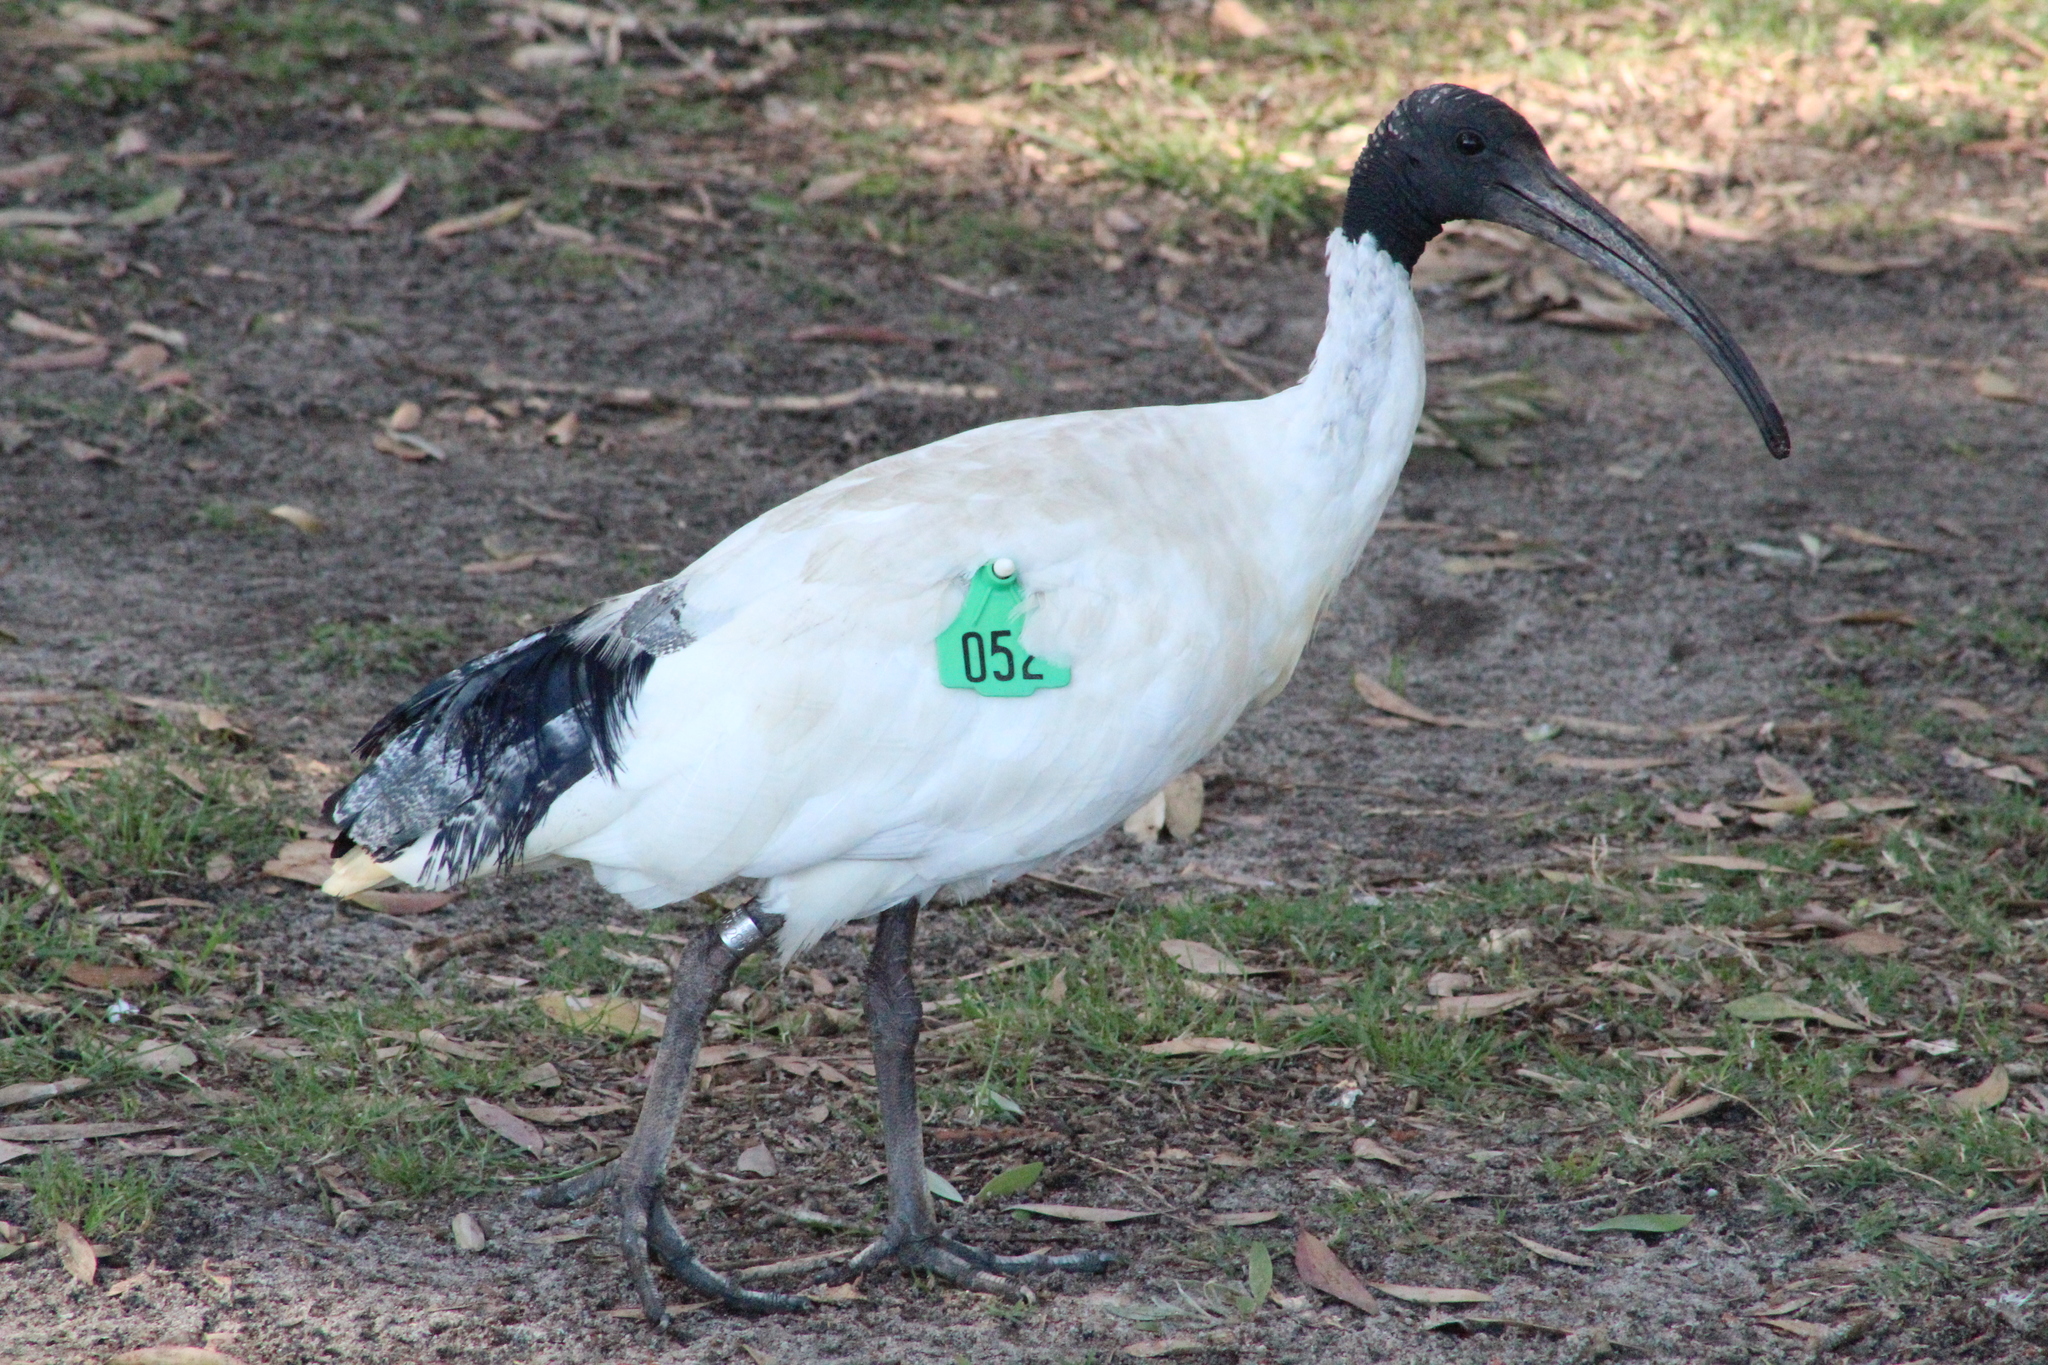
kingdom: Animalia
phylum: Chordata
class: Aves
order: Pelecaniformes
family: Threskiornithidae
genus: Threskiornis
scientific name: Threskiornis molucca
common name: Australian white ibis
